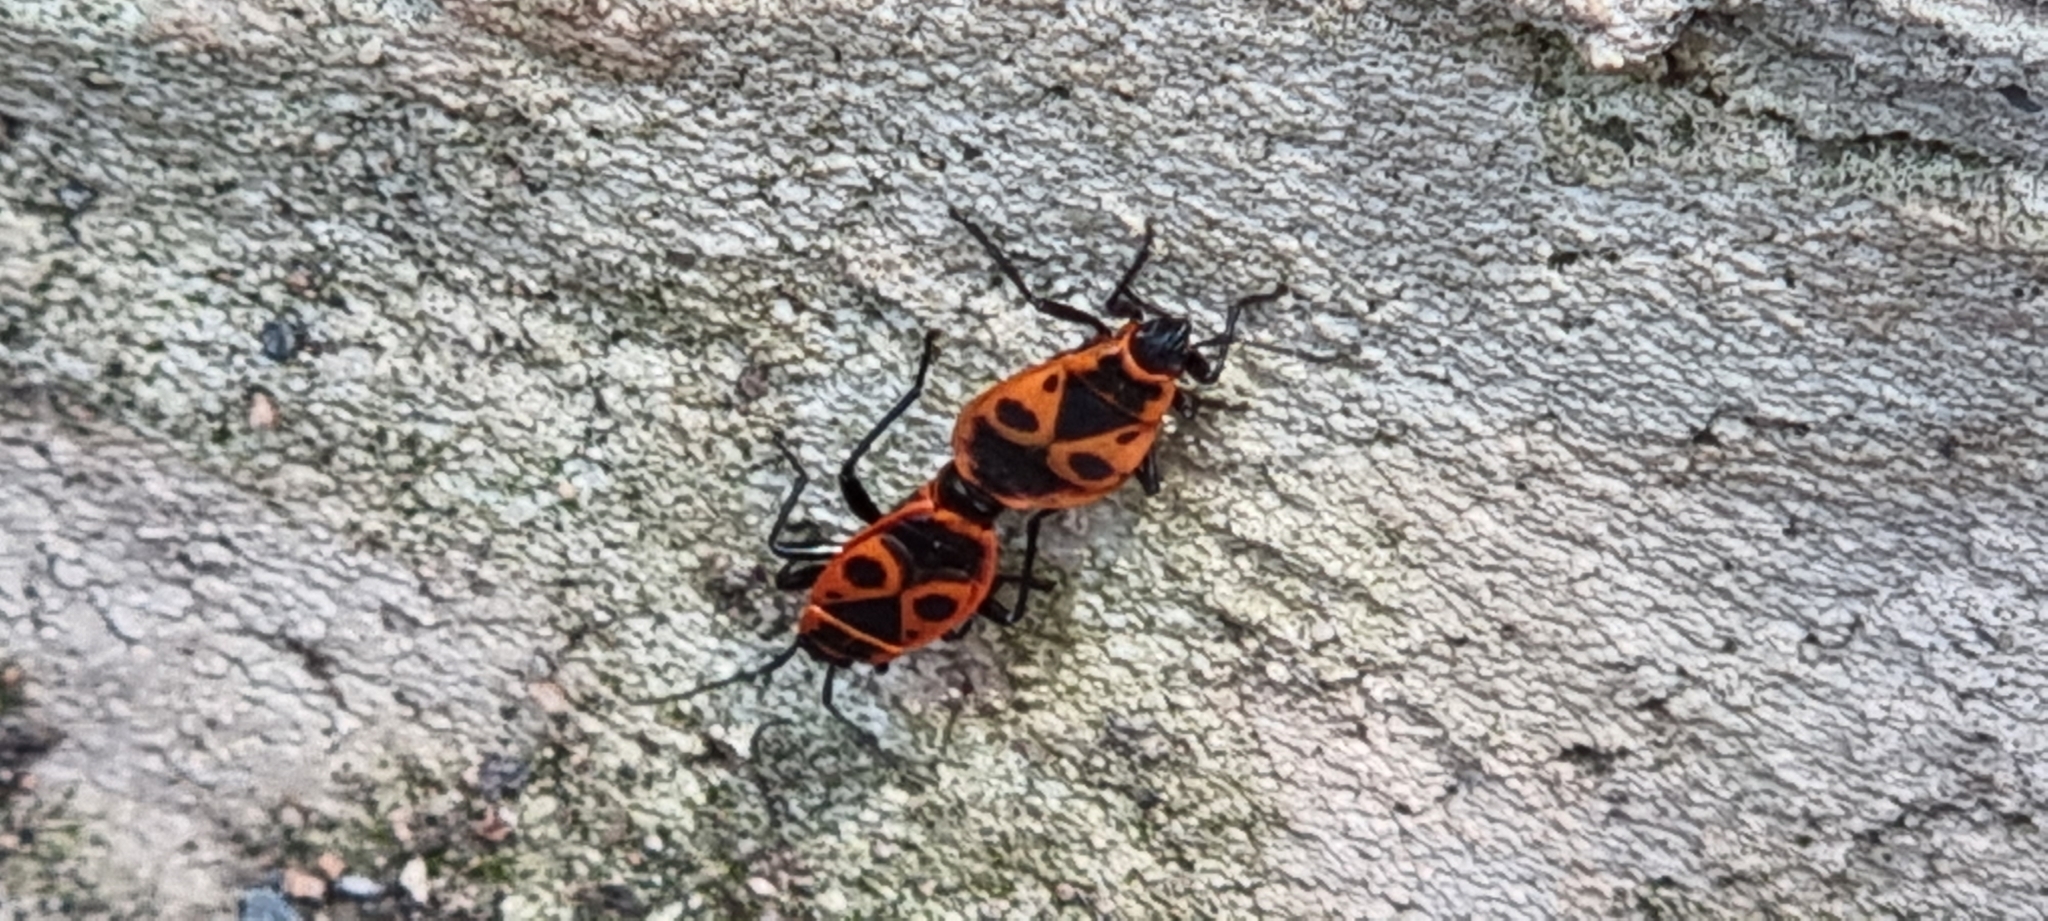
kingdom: Animalia
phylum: Arthropoda
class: Insecta
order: Hemiptera
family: Pyrrhocoridae
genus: Pyrrhocoris
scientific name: Pyrrhocoris apterus
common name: Firebug
